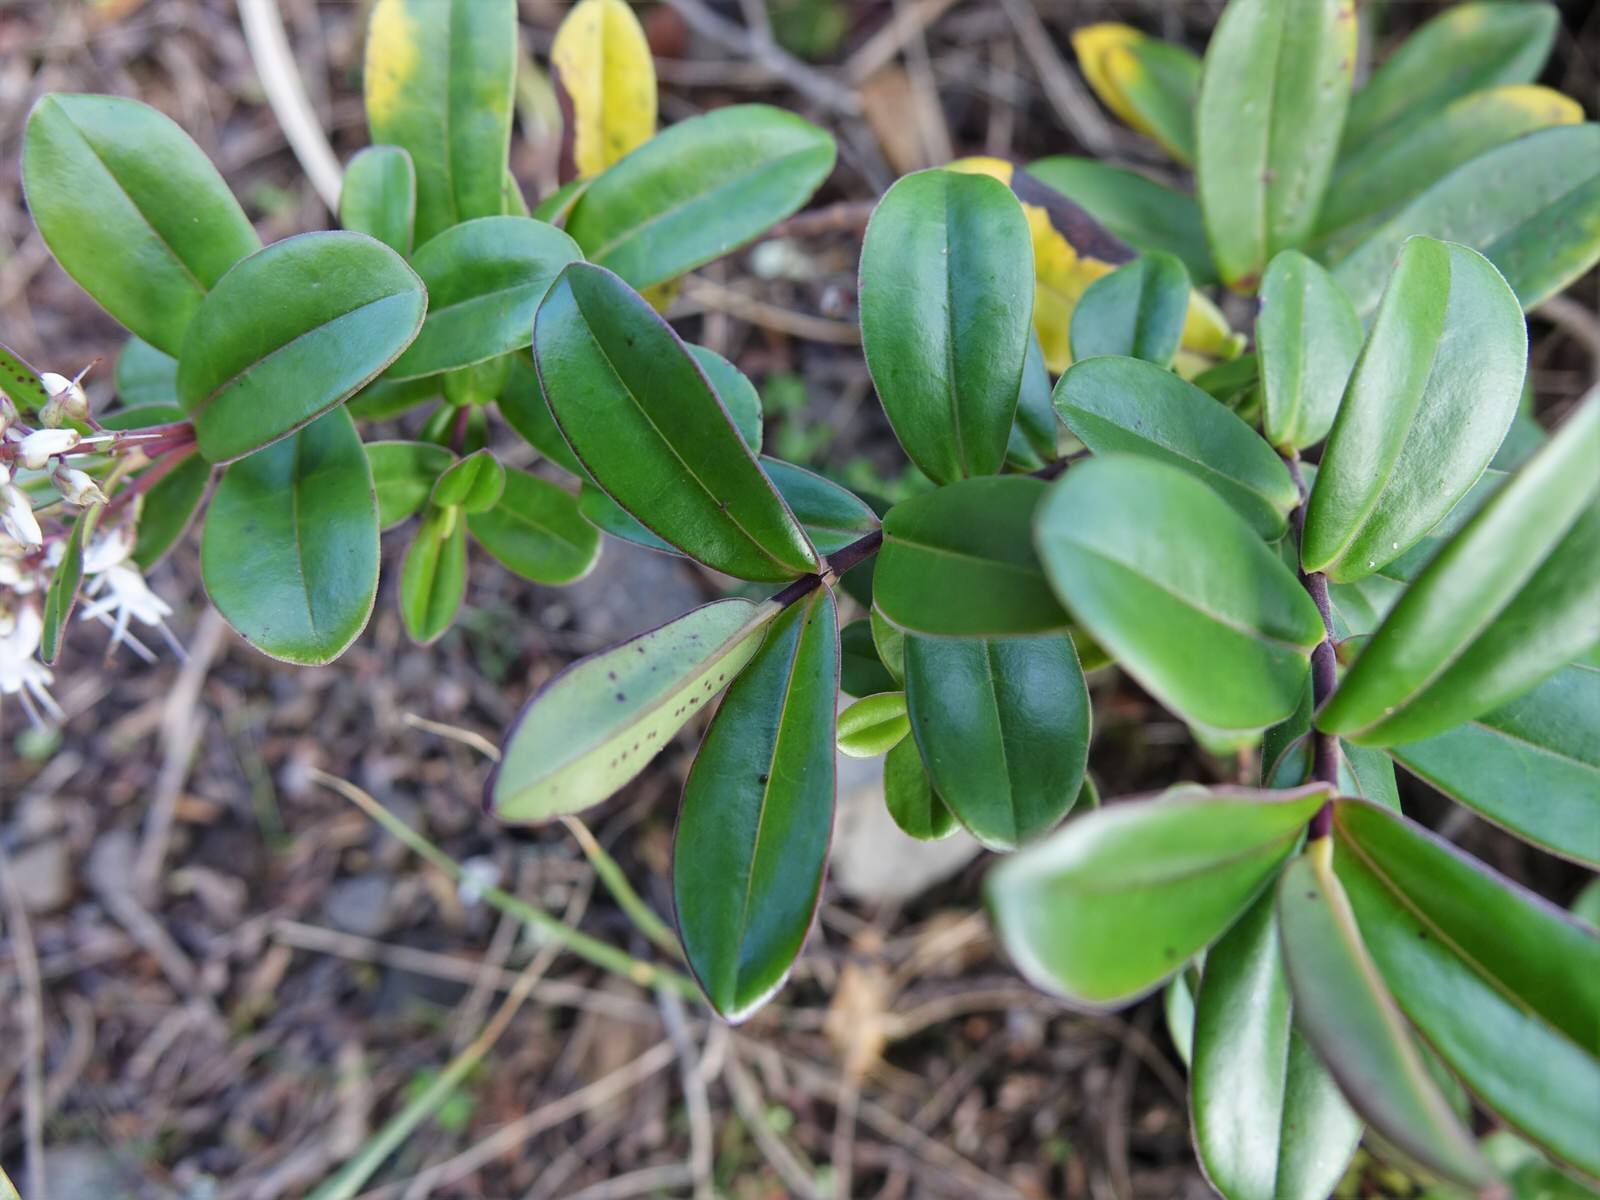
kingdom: Plantae
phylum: Tracheophyta
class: Magnoliopsida
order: Lamiales
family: Plantaginaceae
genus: Veronica
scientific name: Veronica obtusata
